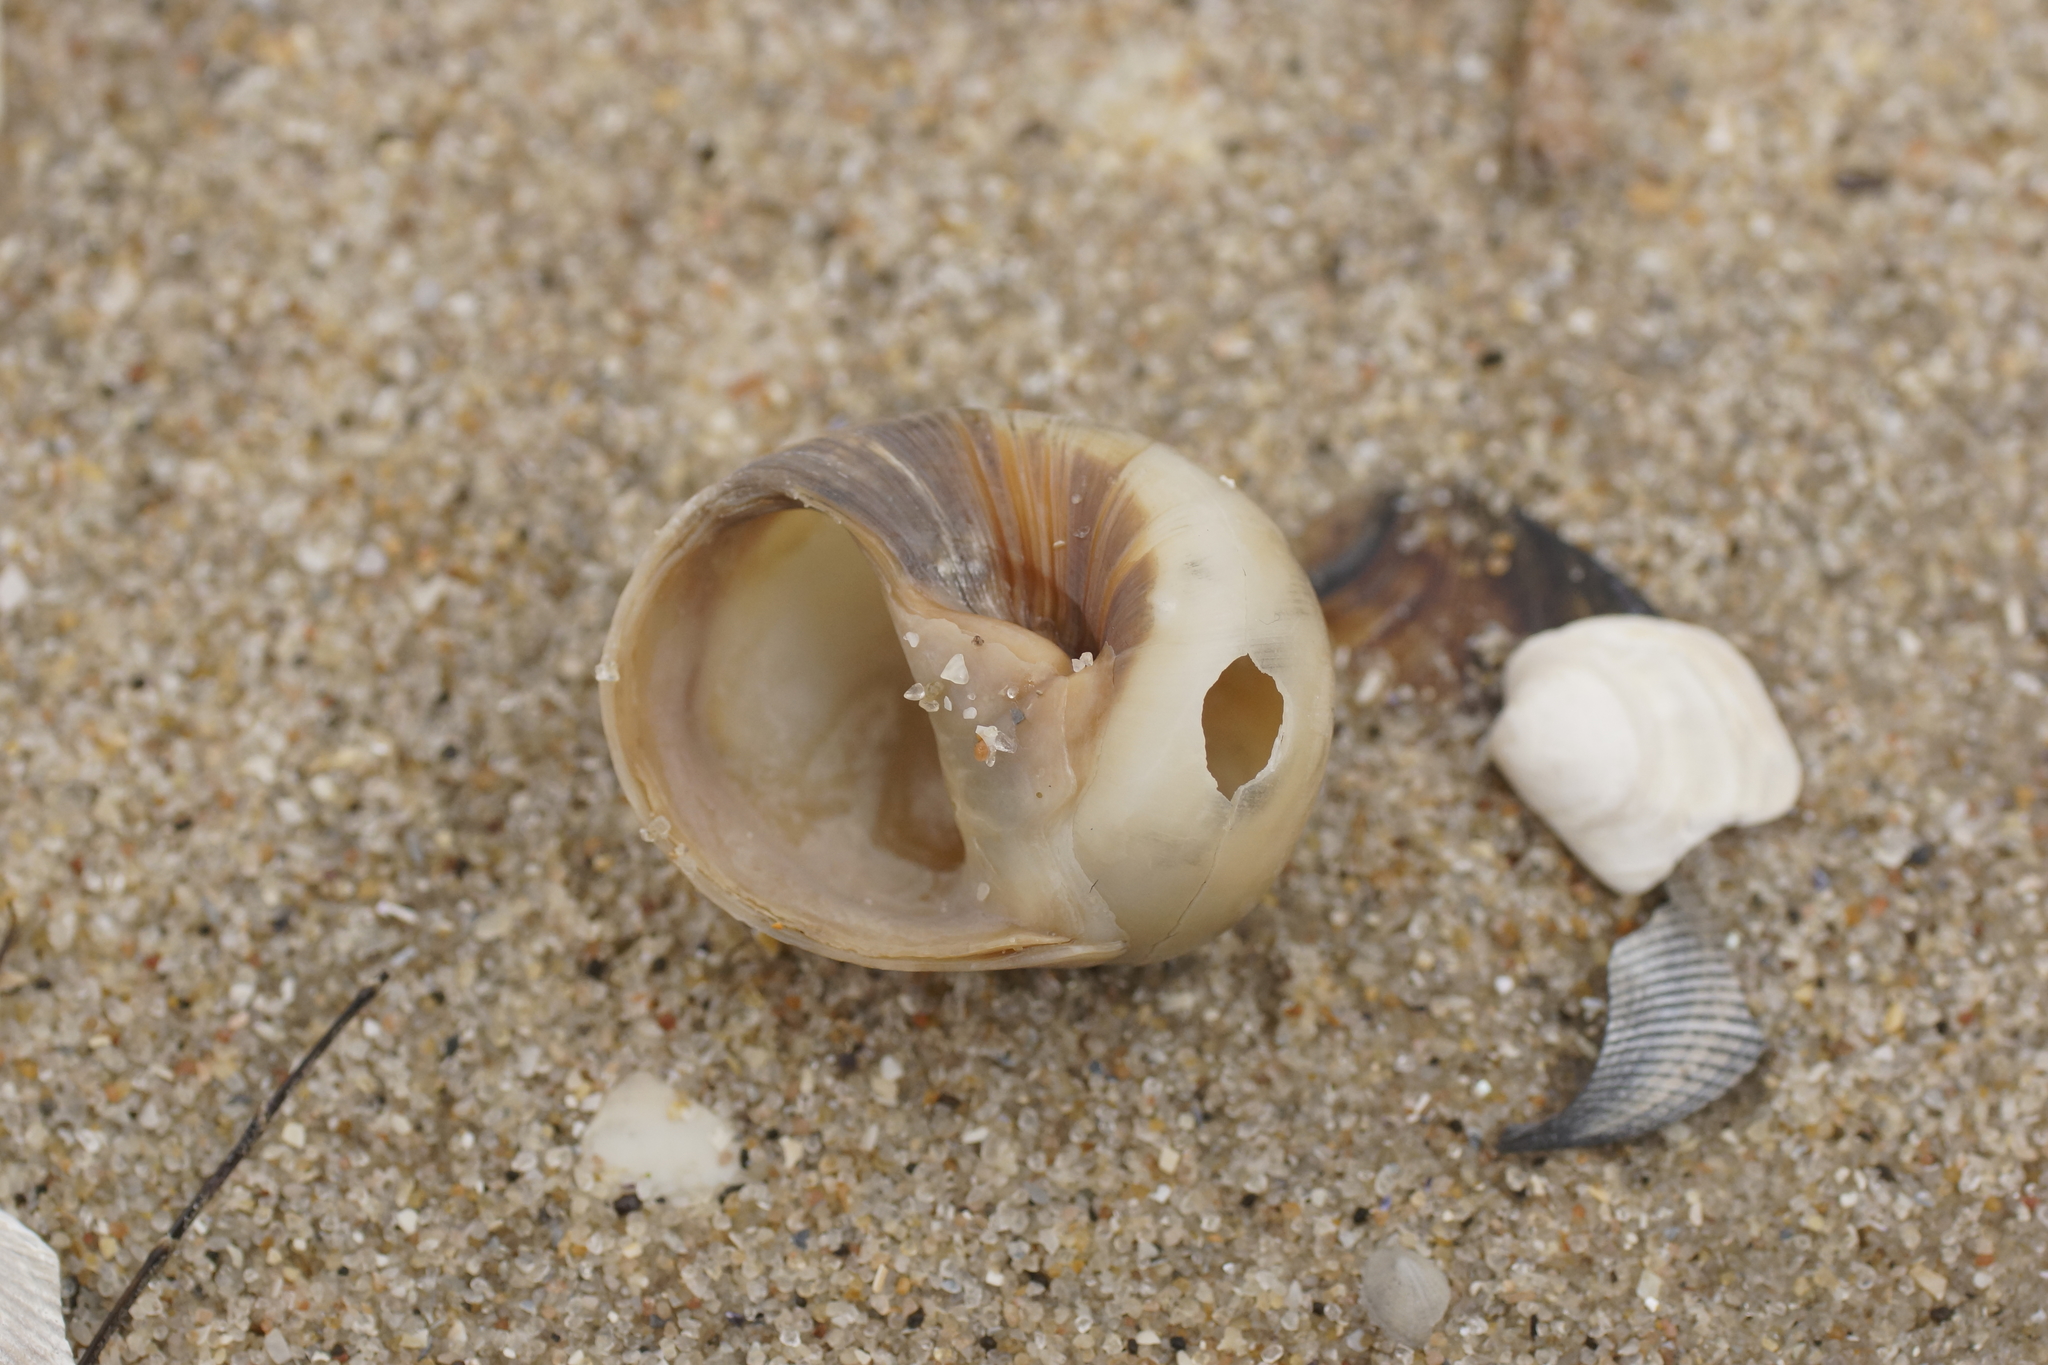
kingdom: Animalia
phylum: Mollusca
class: Gastropoda
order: Littorinimorpha
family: Naticidae
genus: Neverita
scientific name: Neverita didyma
